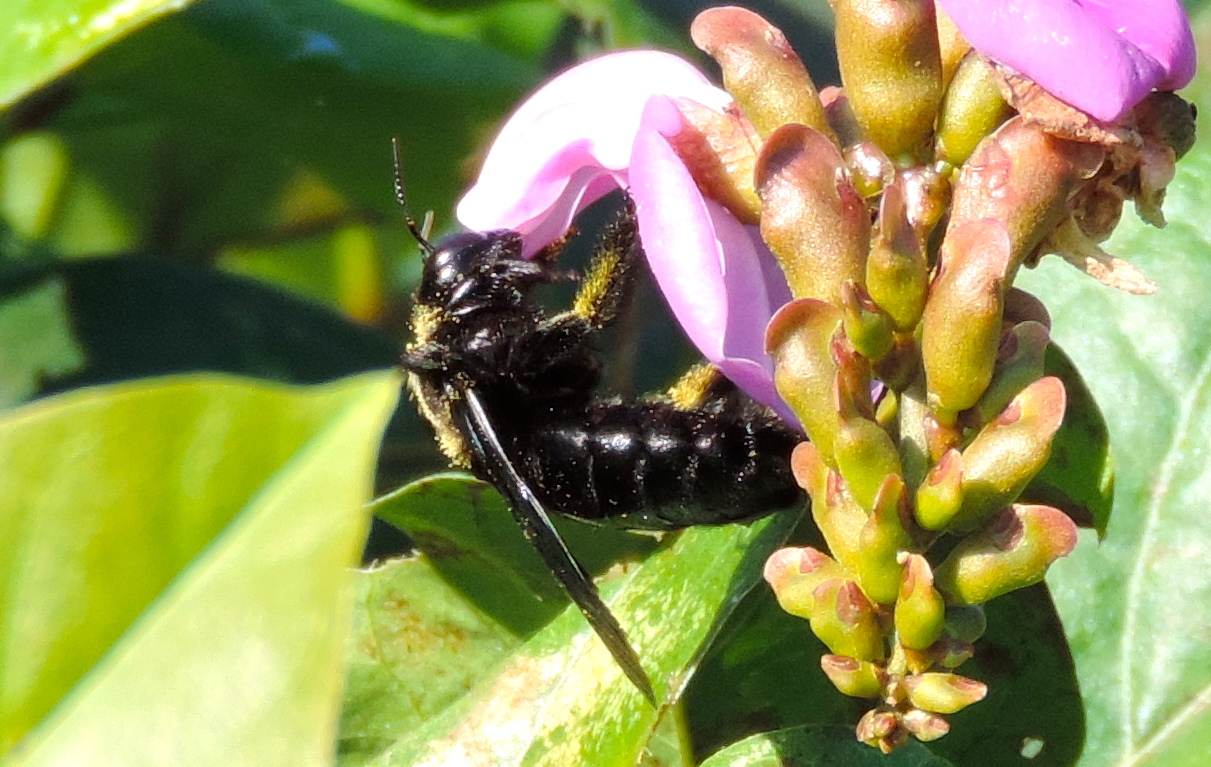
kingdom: Animalia
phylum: Arthropoda
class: Insecta
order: Hymenoptera
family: Apidae
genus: Xylocopa
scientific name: Xylocopa
